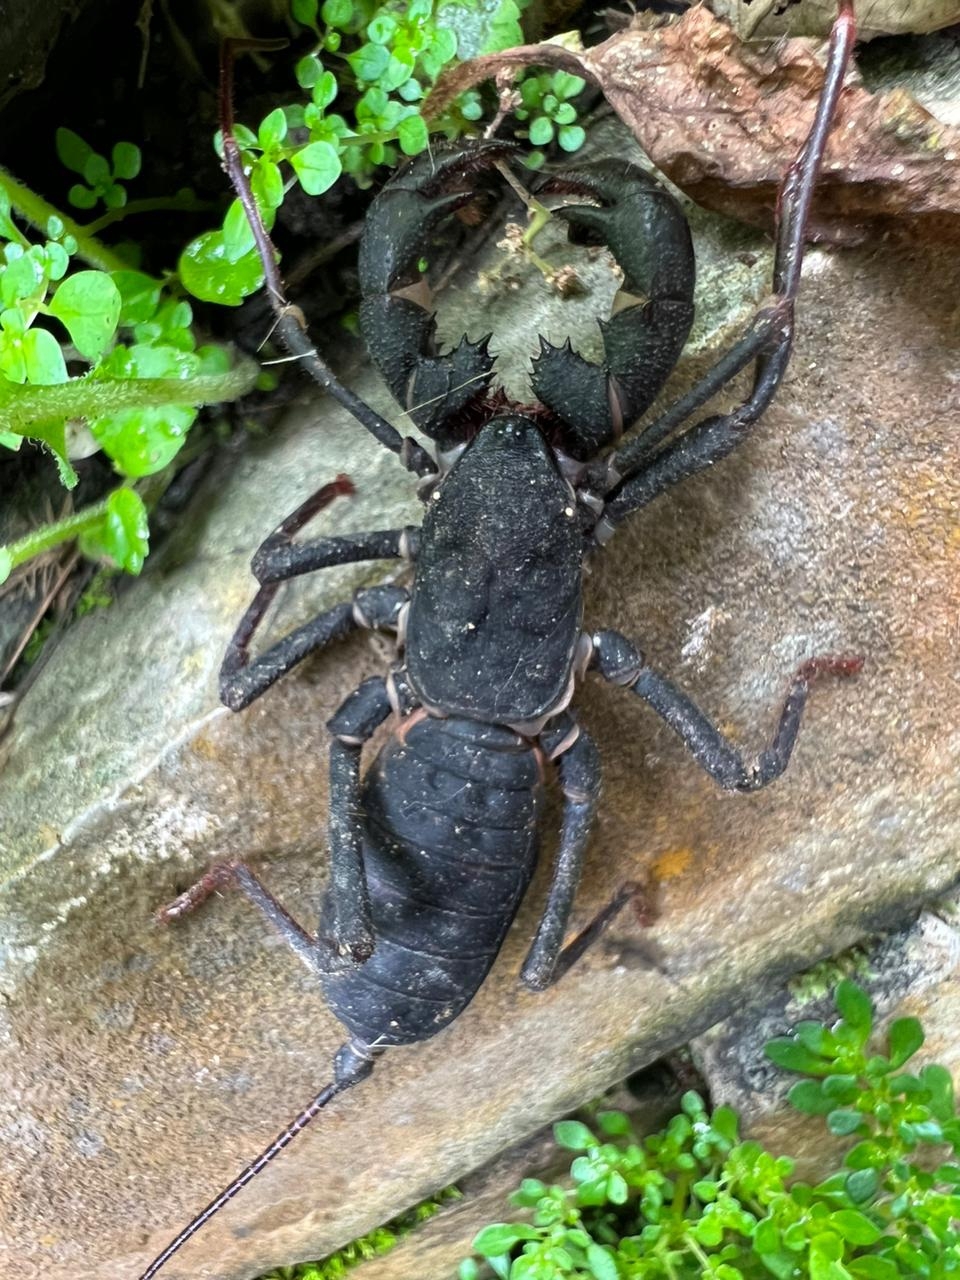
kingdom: Animalia
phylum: Arthropoda
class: Arachnida
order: Uropygi
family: Thelyphonidae
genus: Mastigoproctus
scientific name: Mastigoproctus
